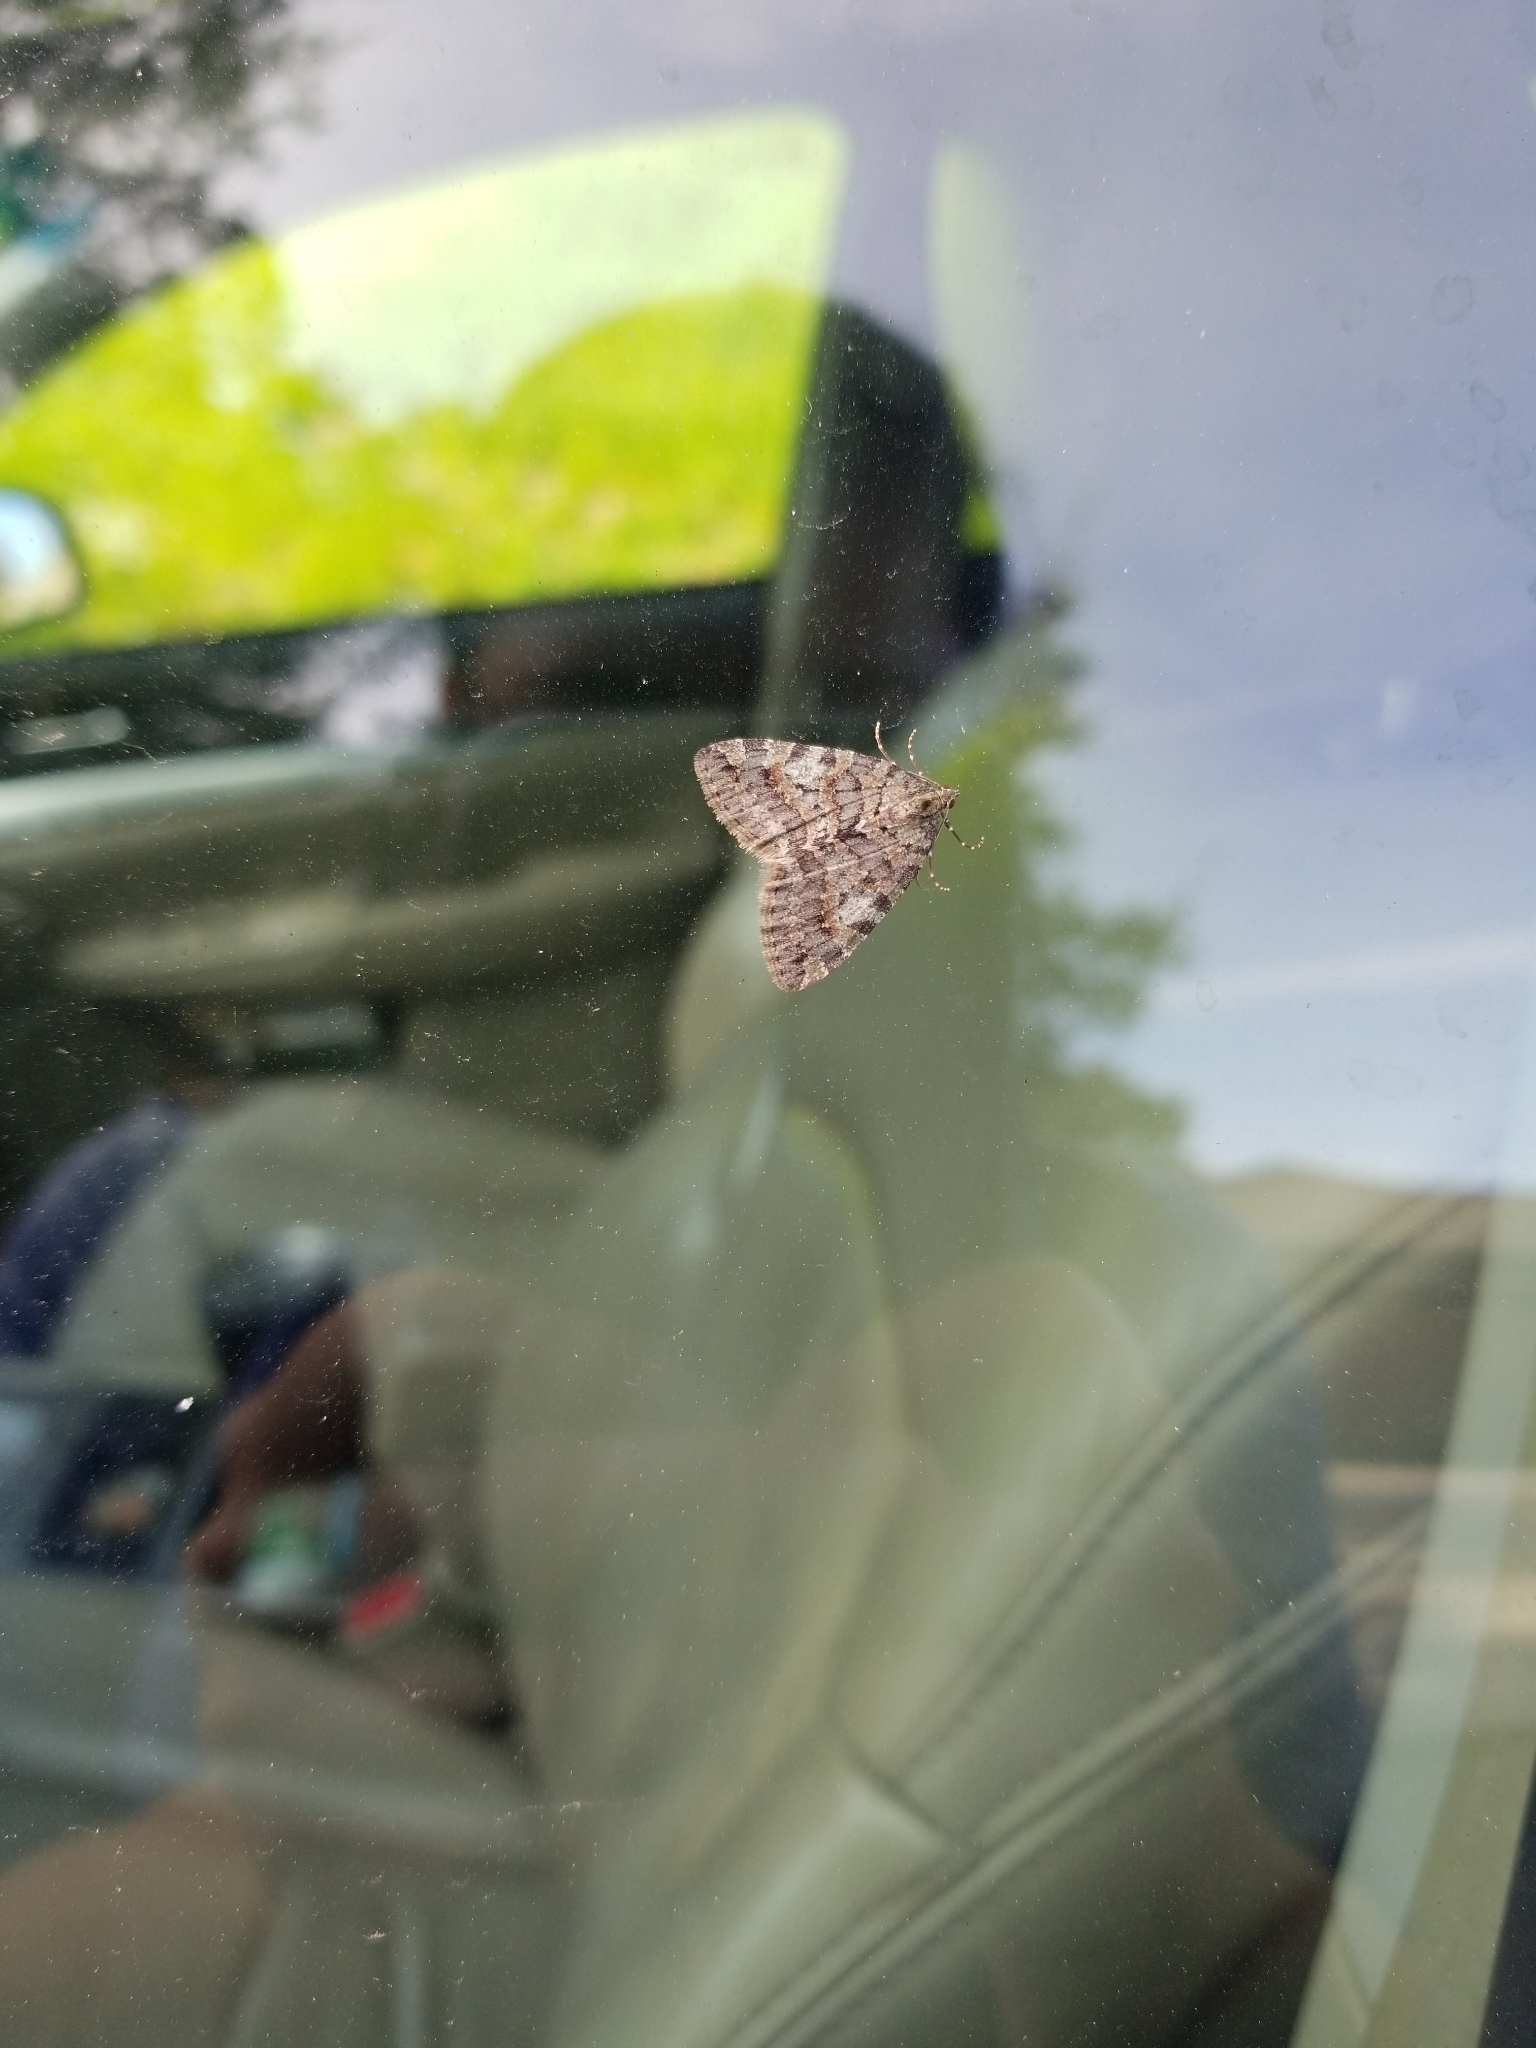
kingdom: Animalia
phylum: Arthropoda
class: Insecta
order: Lepidoptera
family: Geometridae
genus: Hydriomena
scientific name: Hydriomena nubilofasciata
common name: Oak winter highflier moth
